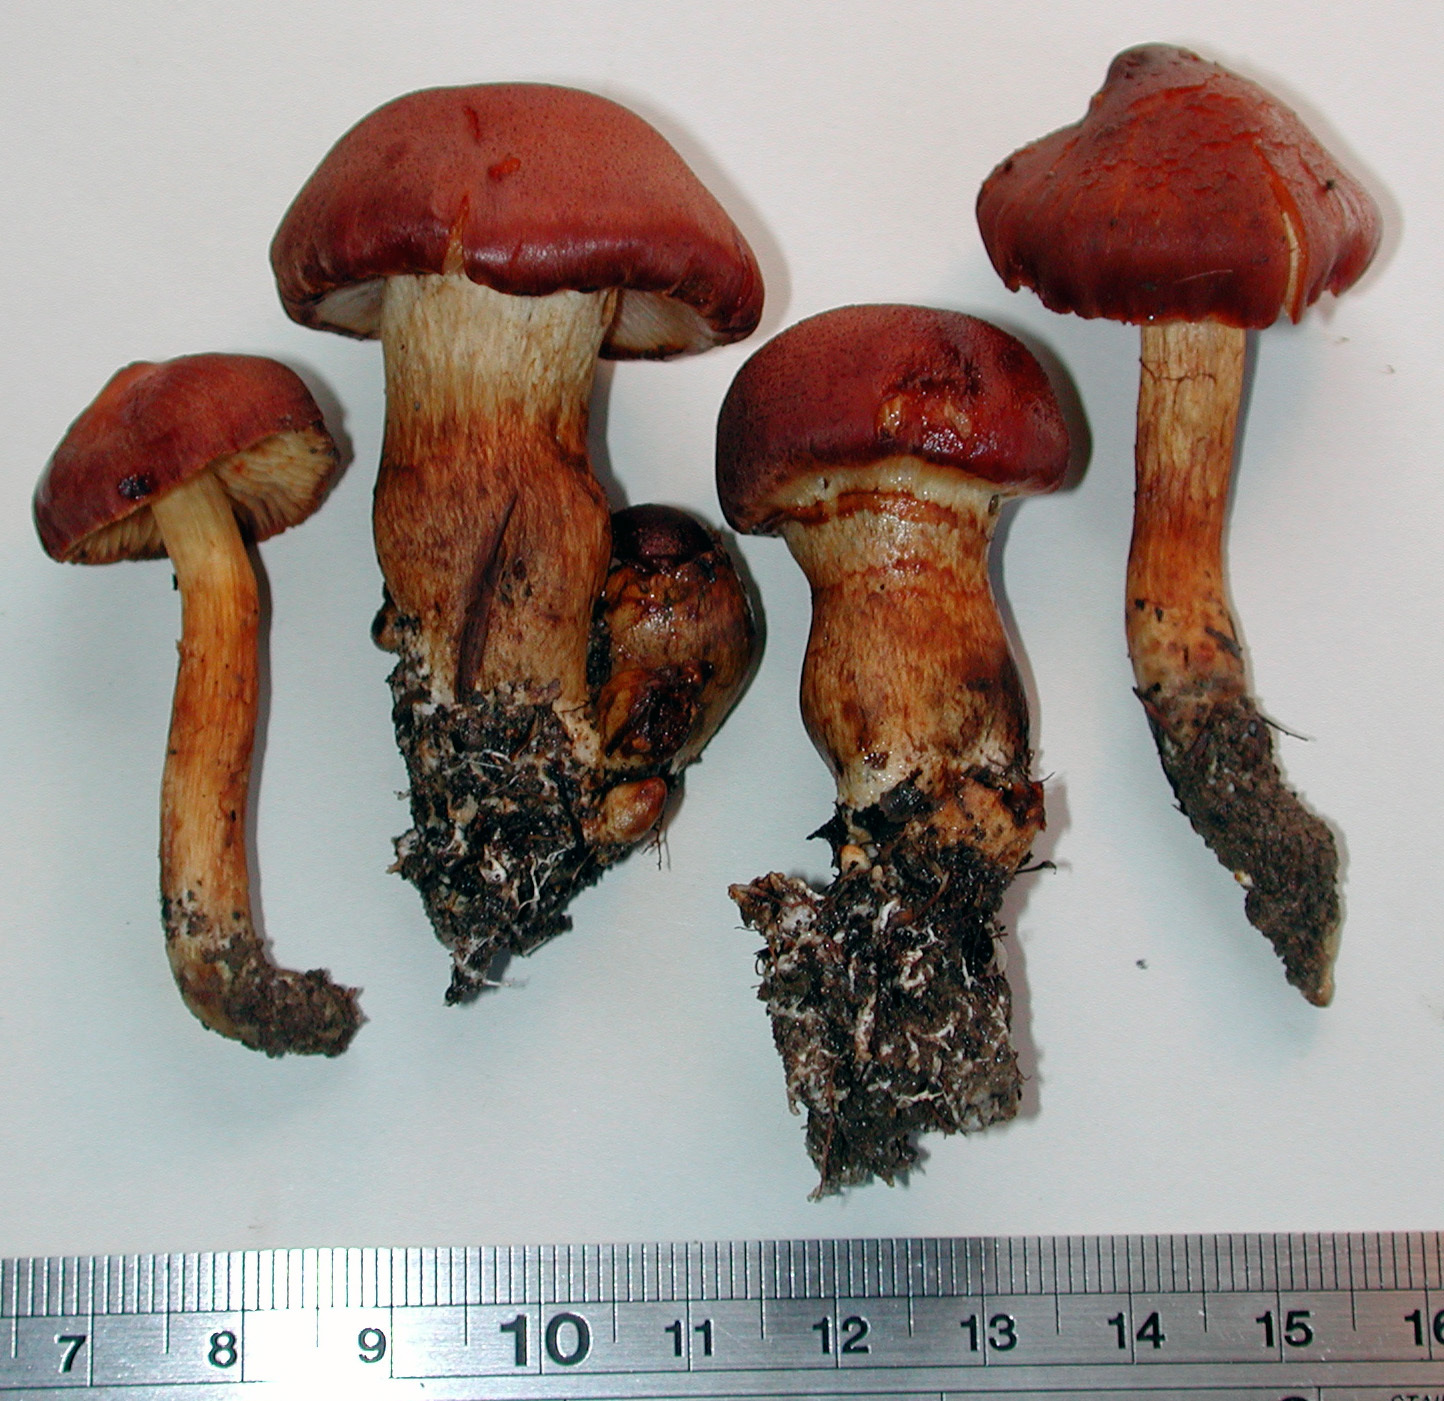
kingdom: Fungi
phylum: Basidiomycota
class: Agaricomycetes
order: Agaricales
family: Cortinariaceae
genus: Aureonarius
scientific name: Aureonarius rubrodactylus
